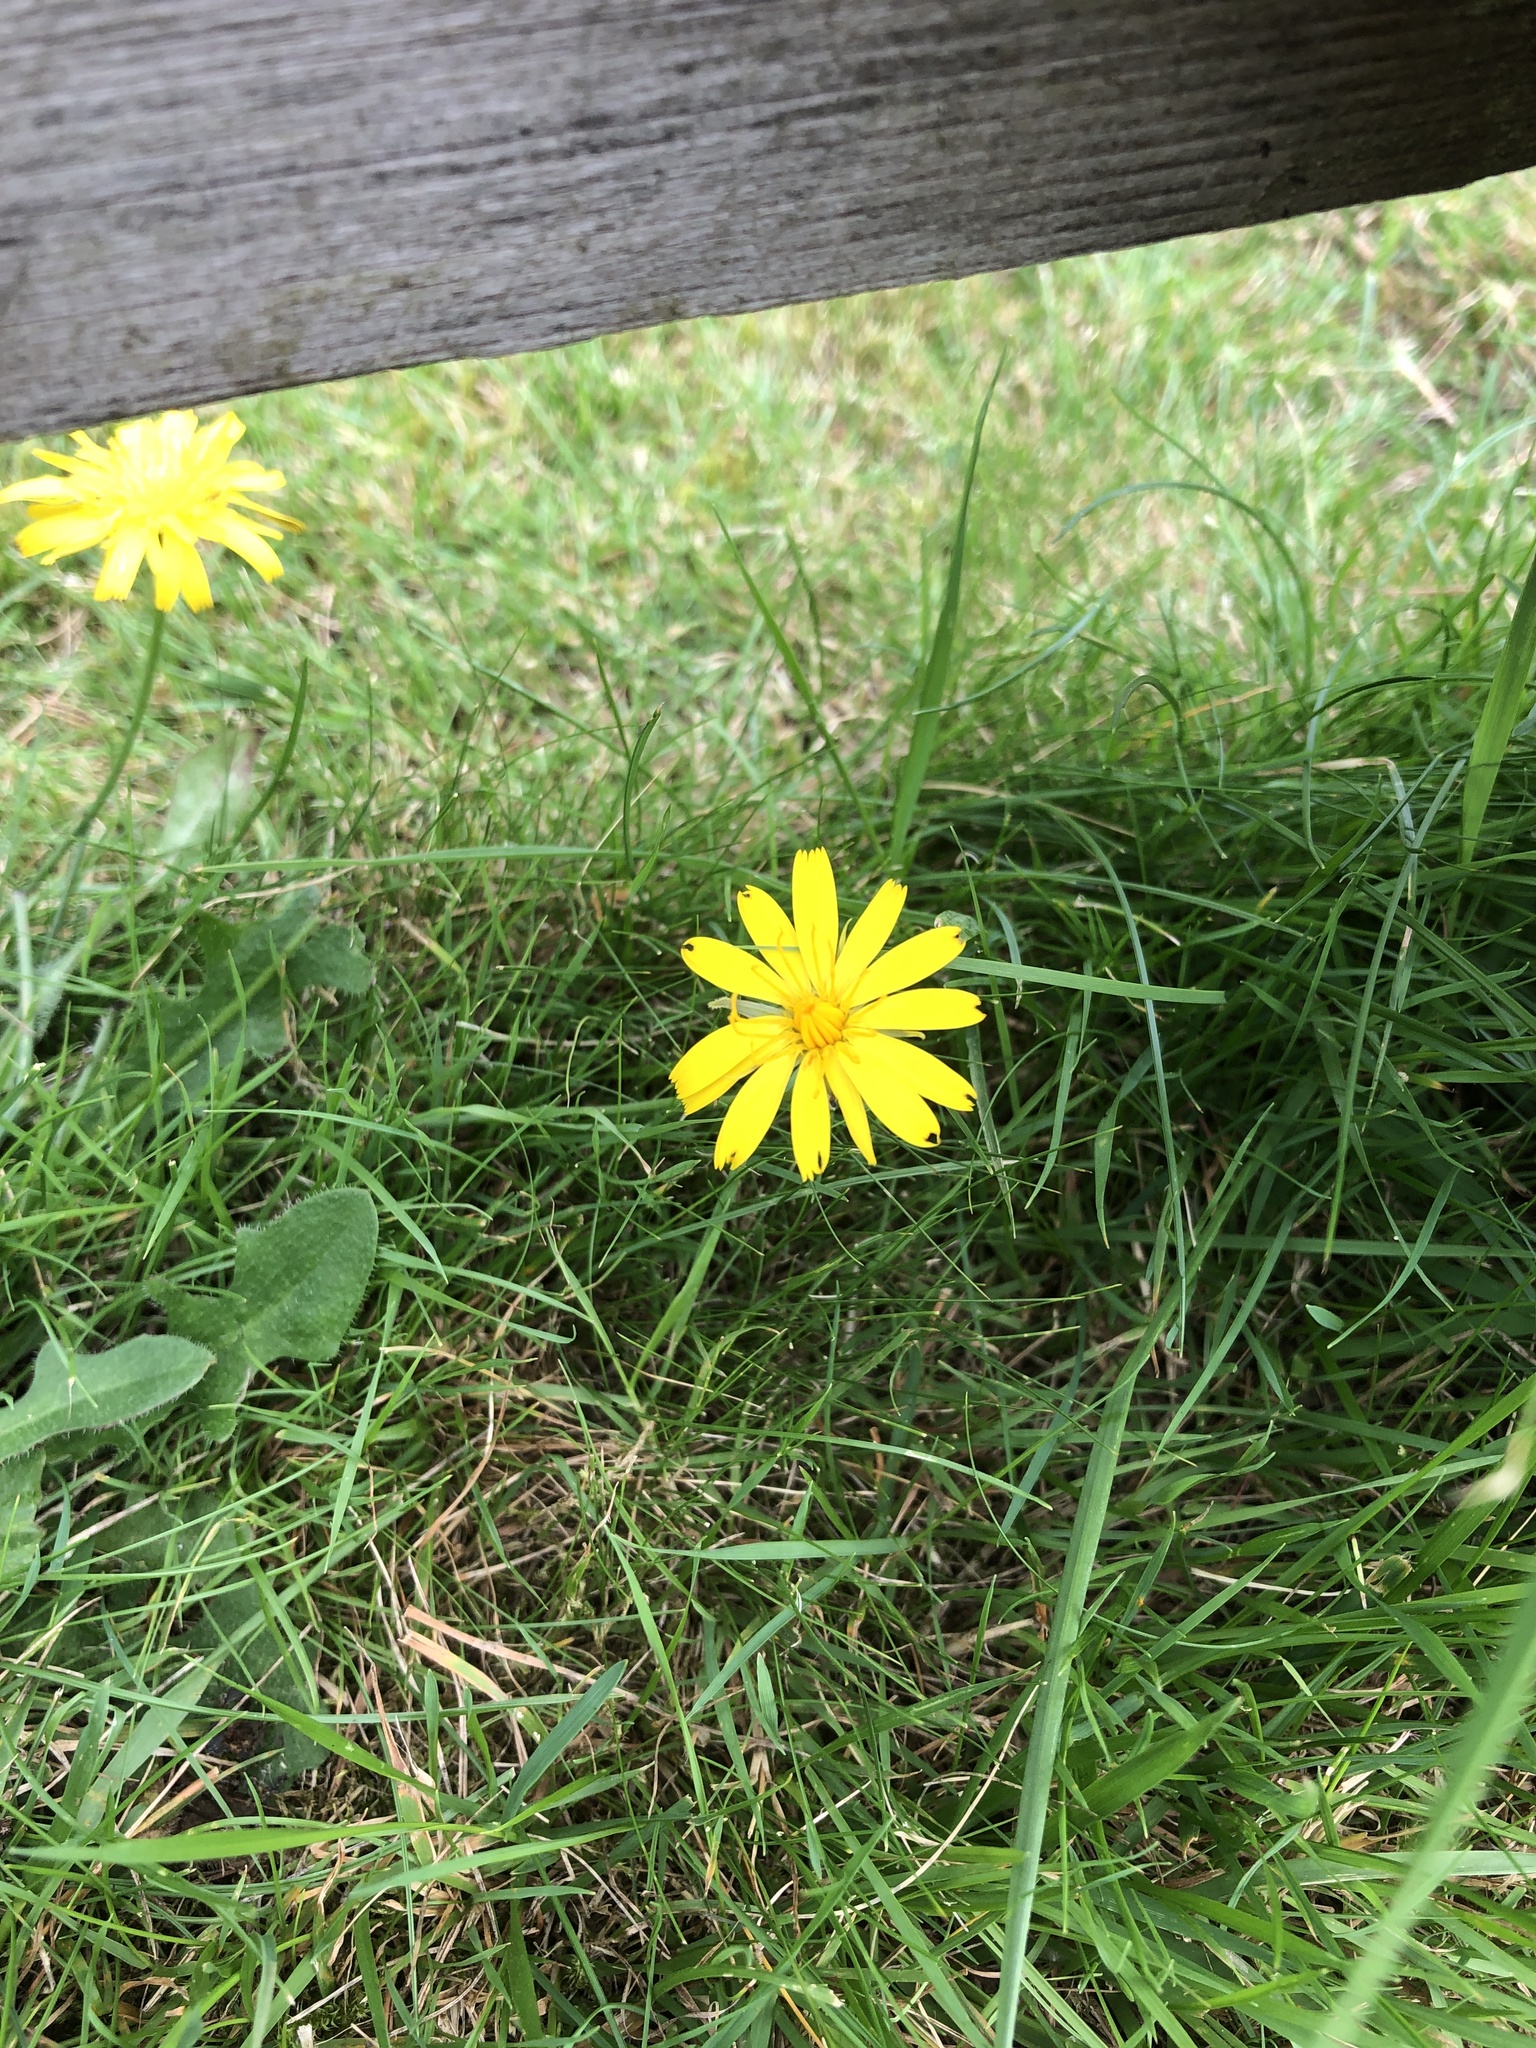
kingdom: Plantae
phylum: Tracheophyta
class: Magnoliopsida
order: Asterales
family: Asteraceae
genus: Scorzoneroides
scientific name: Scorzoneroides autumnalis
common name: Autumn hawkbit
